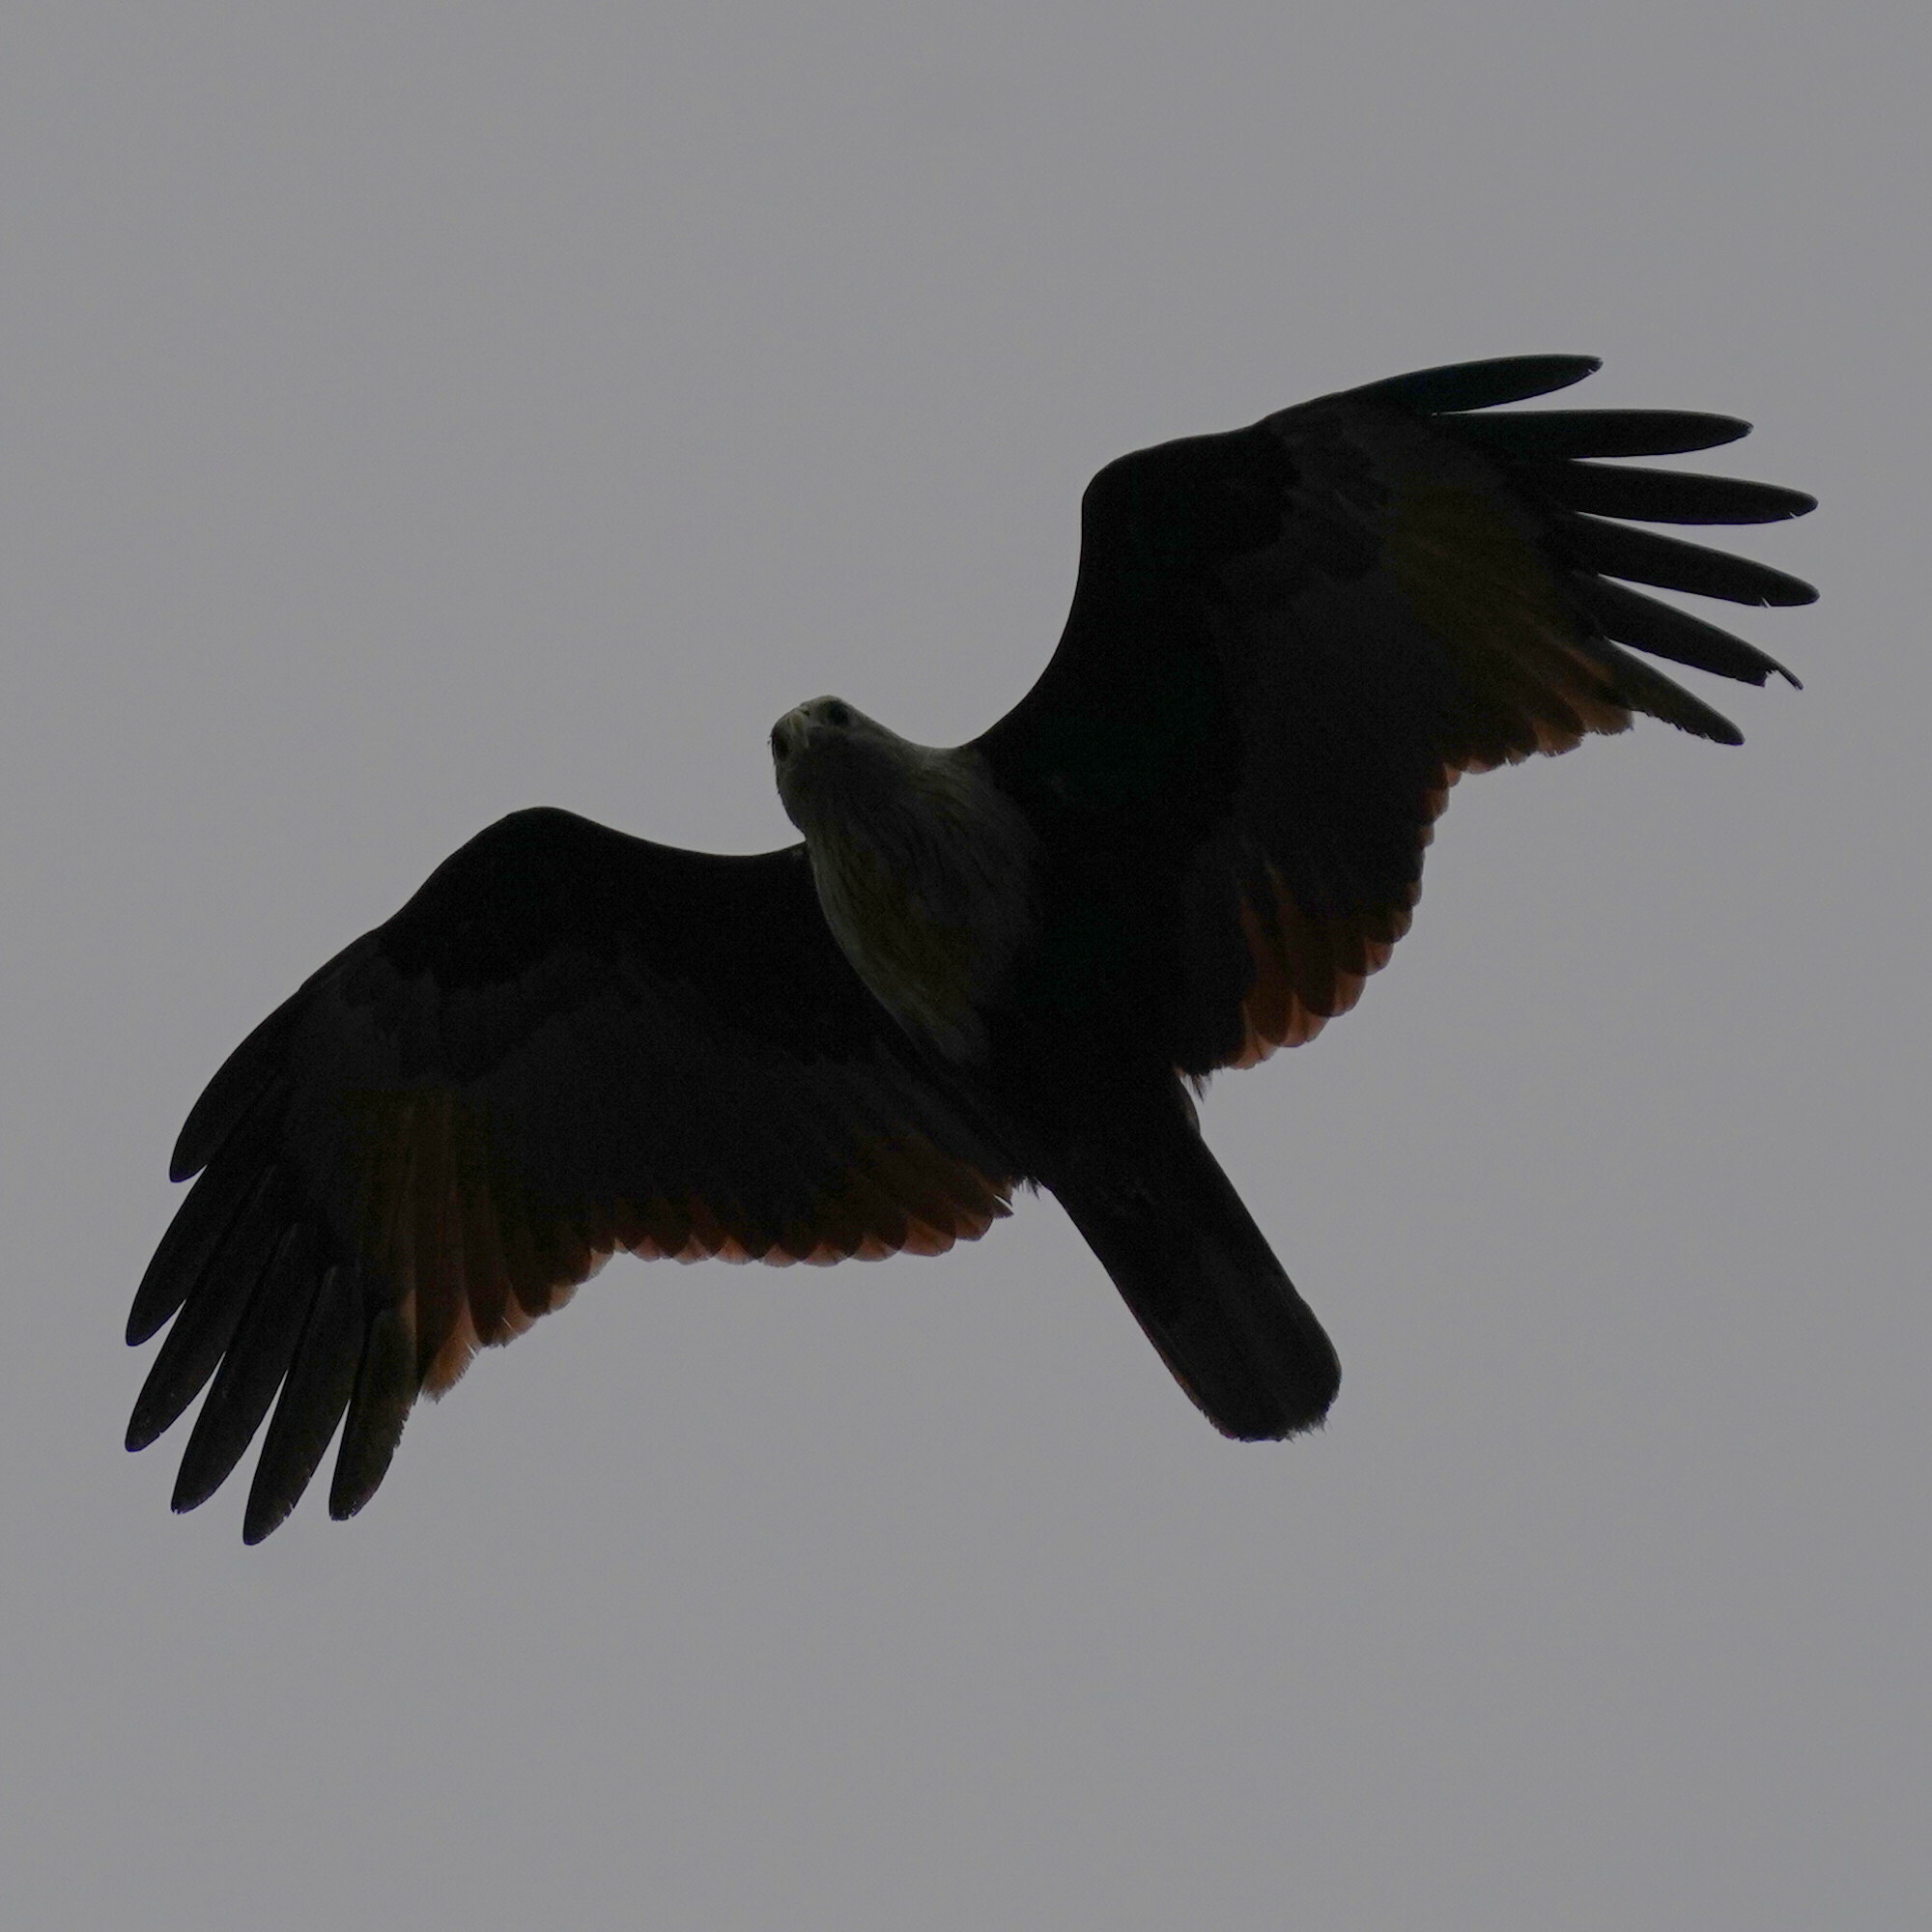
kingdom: Animalia
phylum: Chordata
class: Aves
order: Accipitriformes
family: Accipitridae
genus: Haliastur
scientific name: Haliastur indus
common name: Brahminy kite
